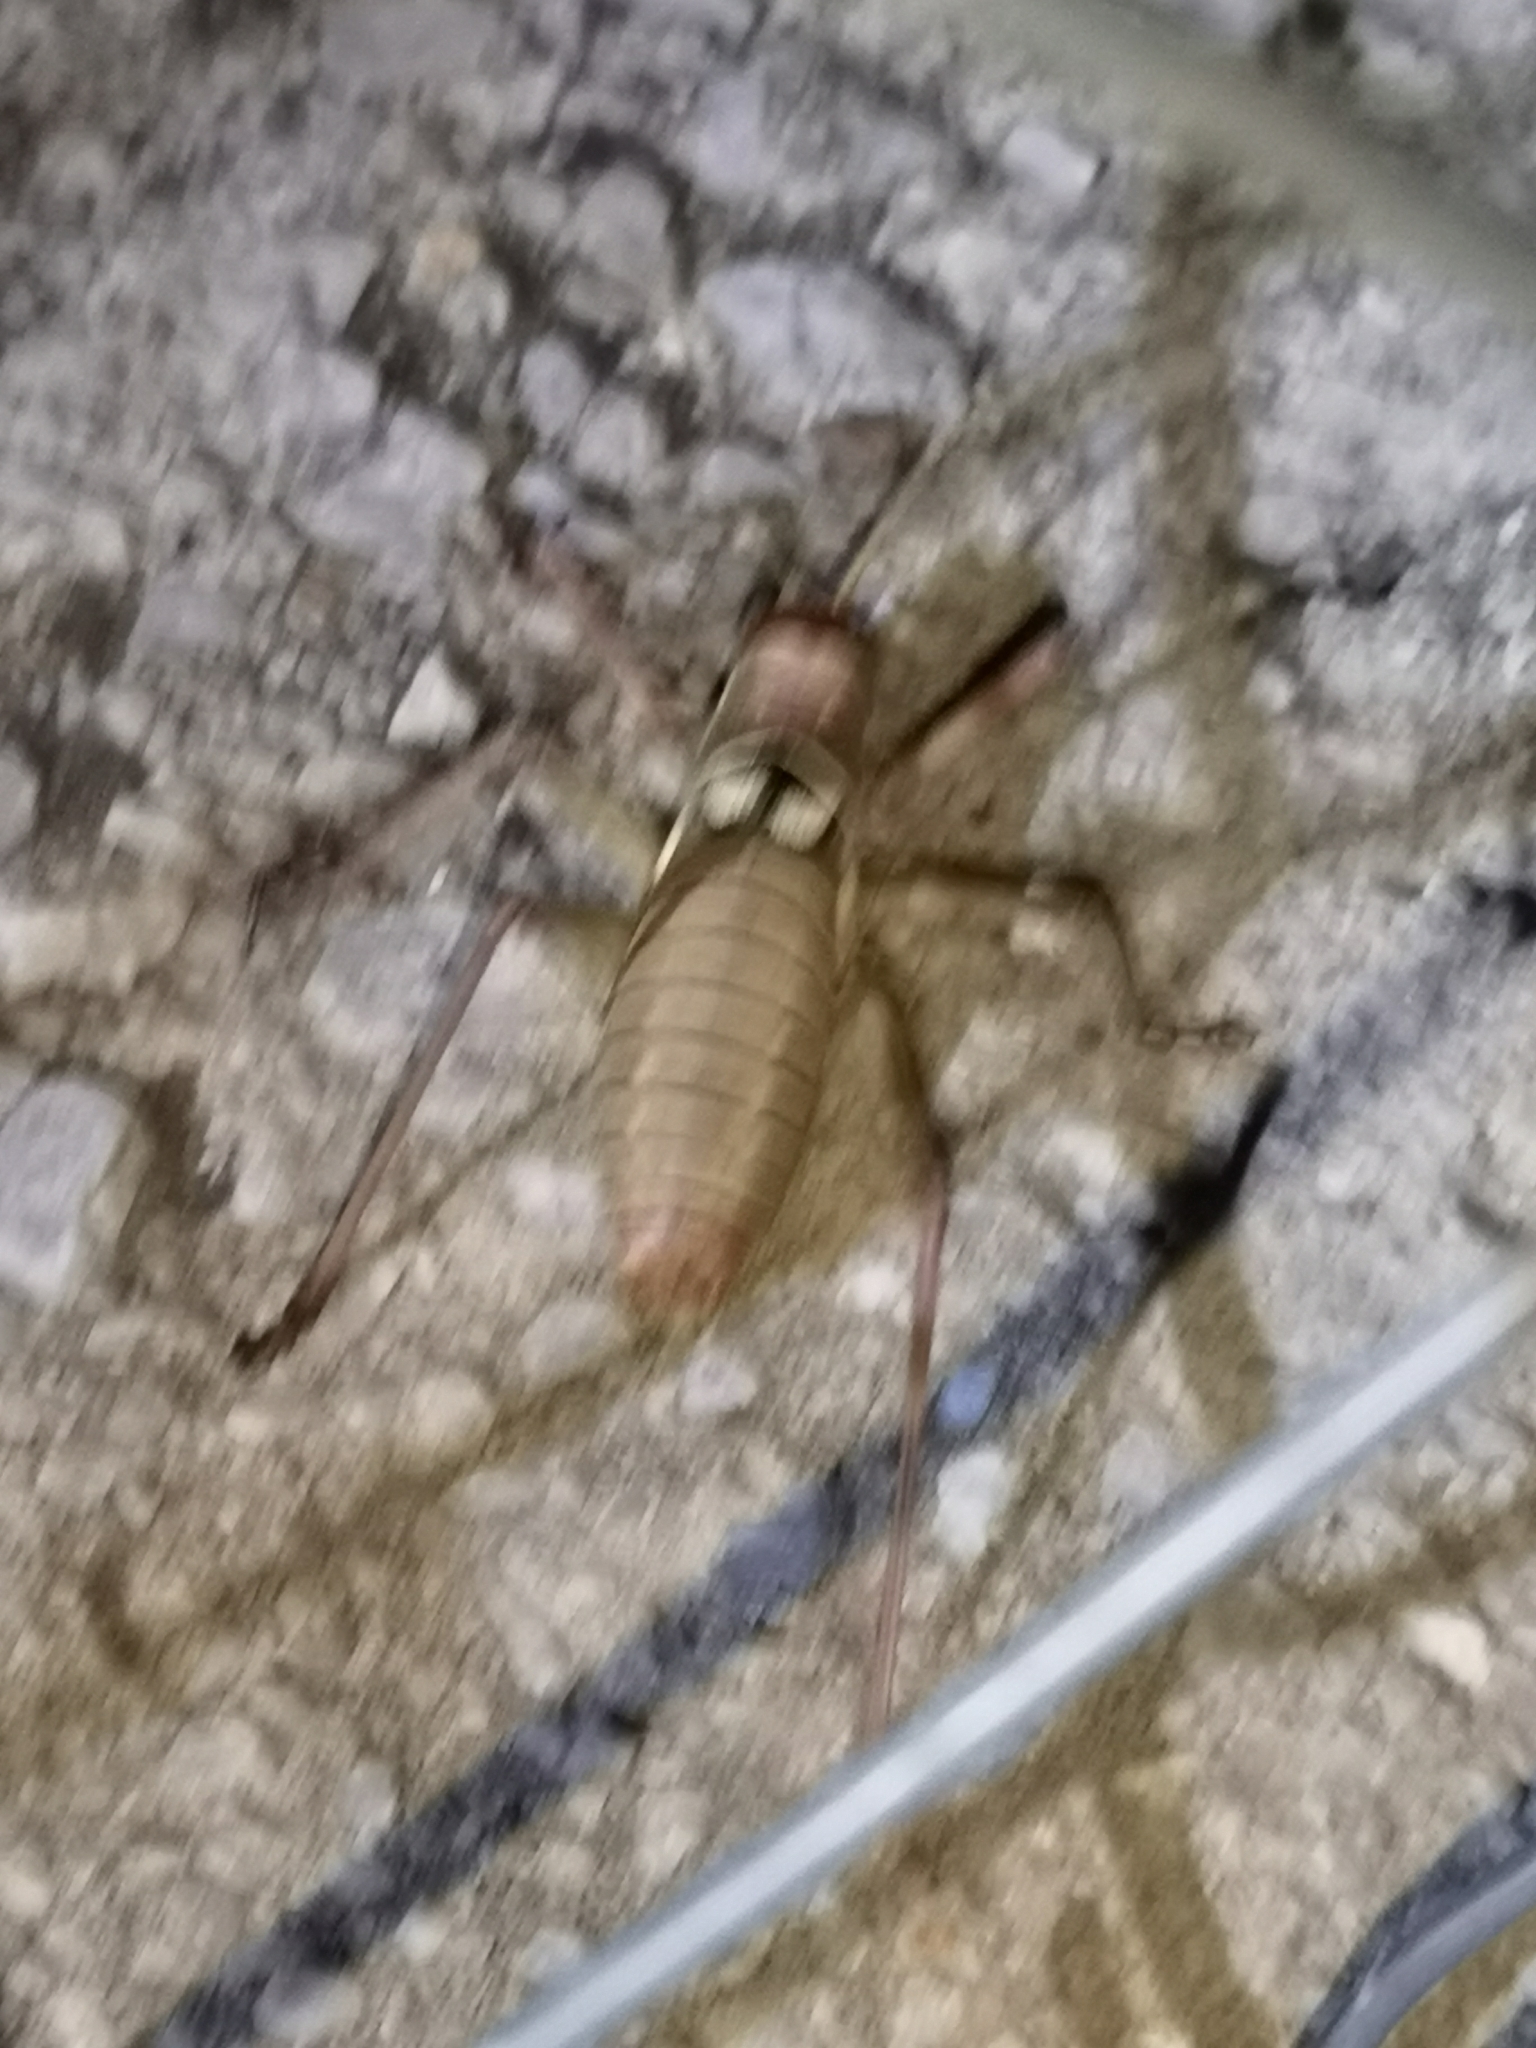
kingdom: Animalia
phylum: Arthropoda
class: Insecta
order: Orthoptera
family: Tettigoniidae
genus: Dinarippiger
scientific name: Dinarippiger discoidalis
